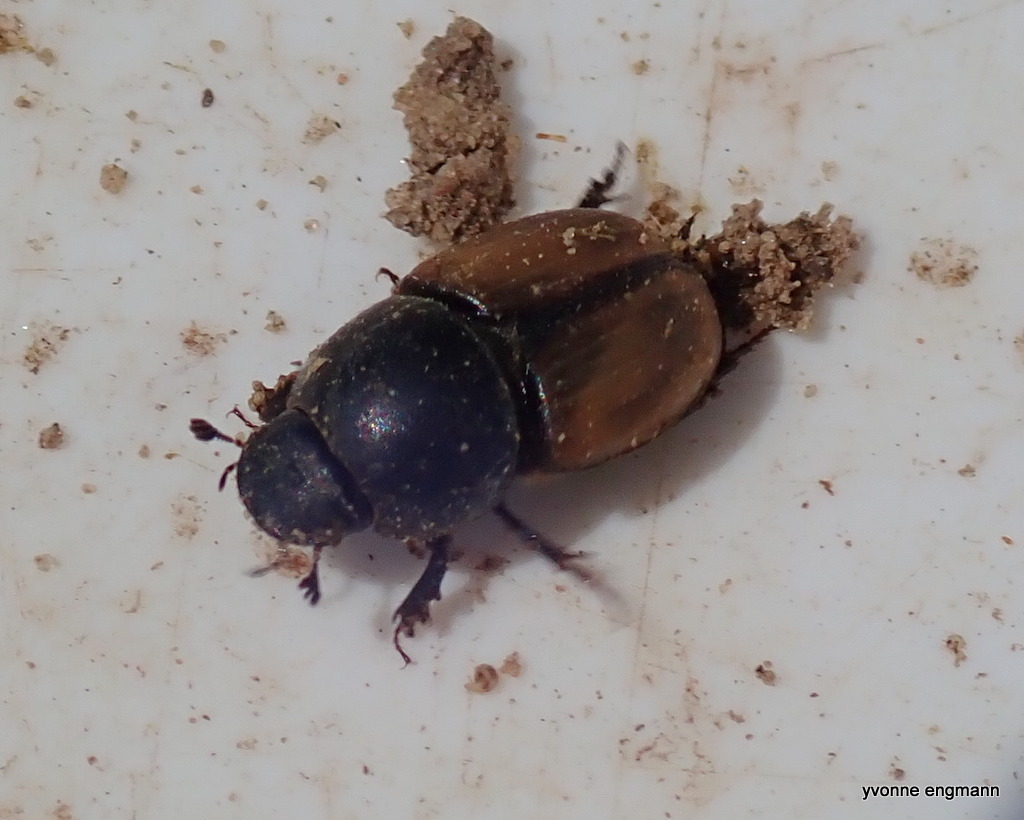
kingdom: Animalia
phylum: Arthropoda
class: Insecta
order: Coleoptera
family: Scarabaeidae
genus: Colobopterus
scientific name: Colobopterus erraticus
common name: Erratic small dung beetle
